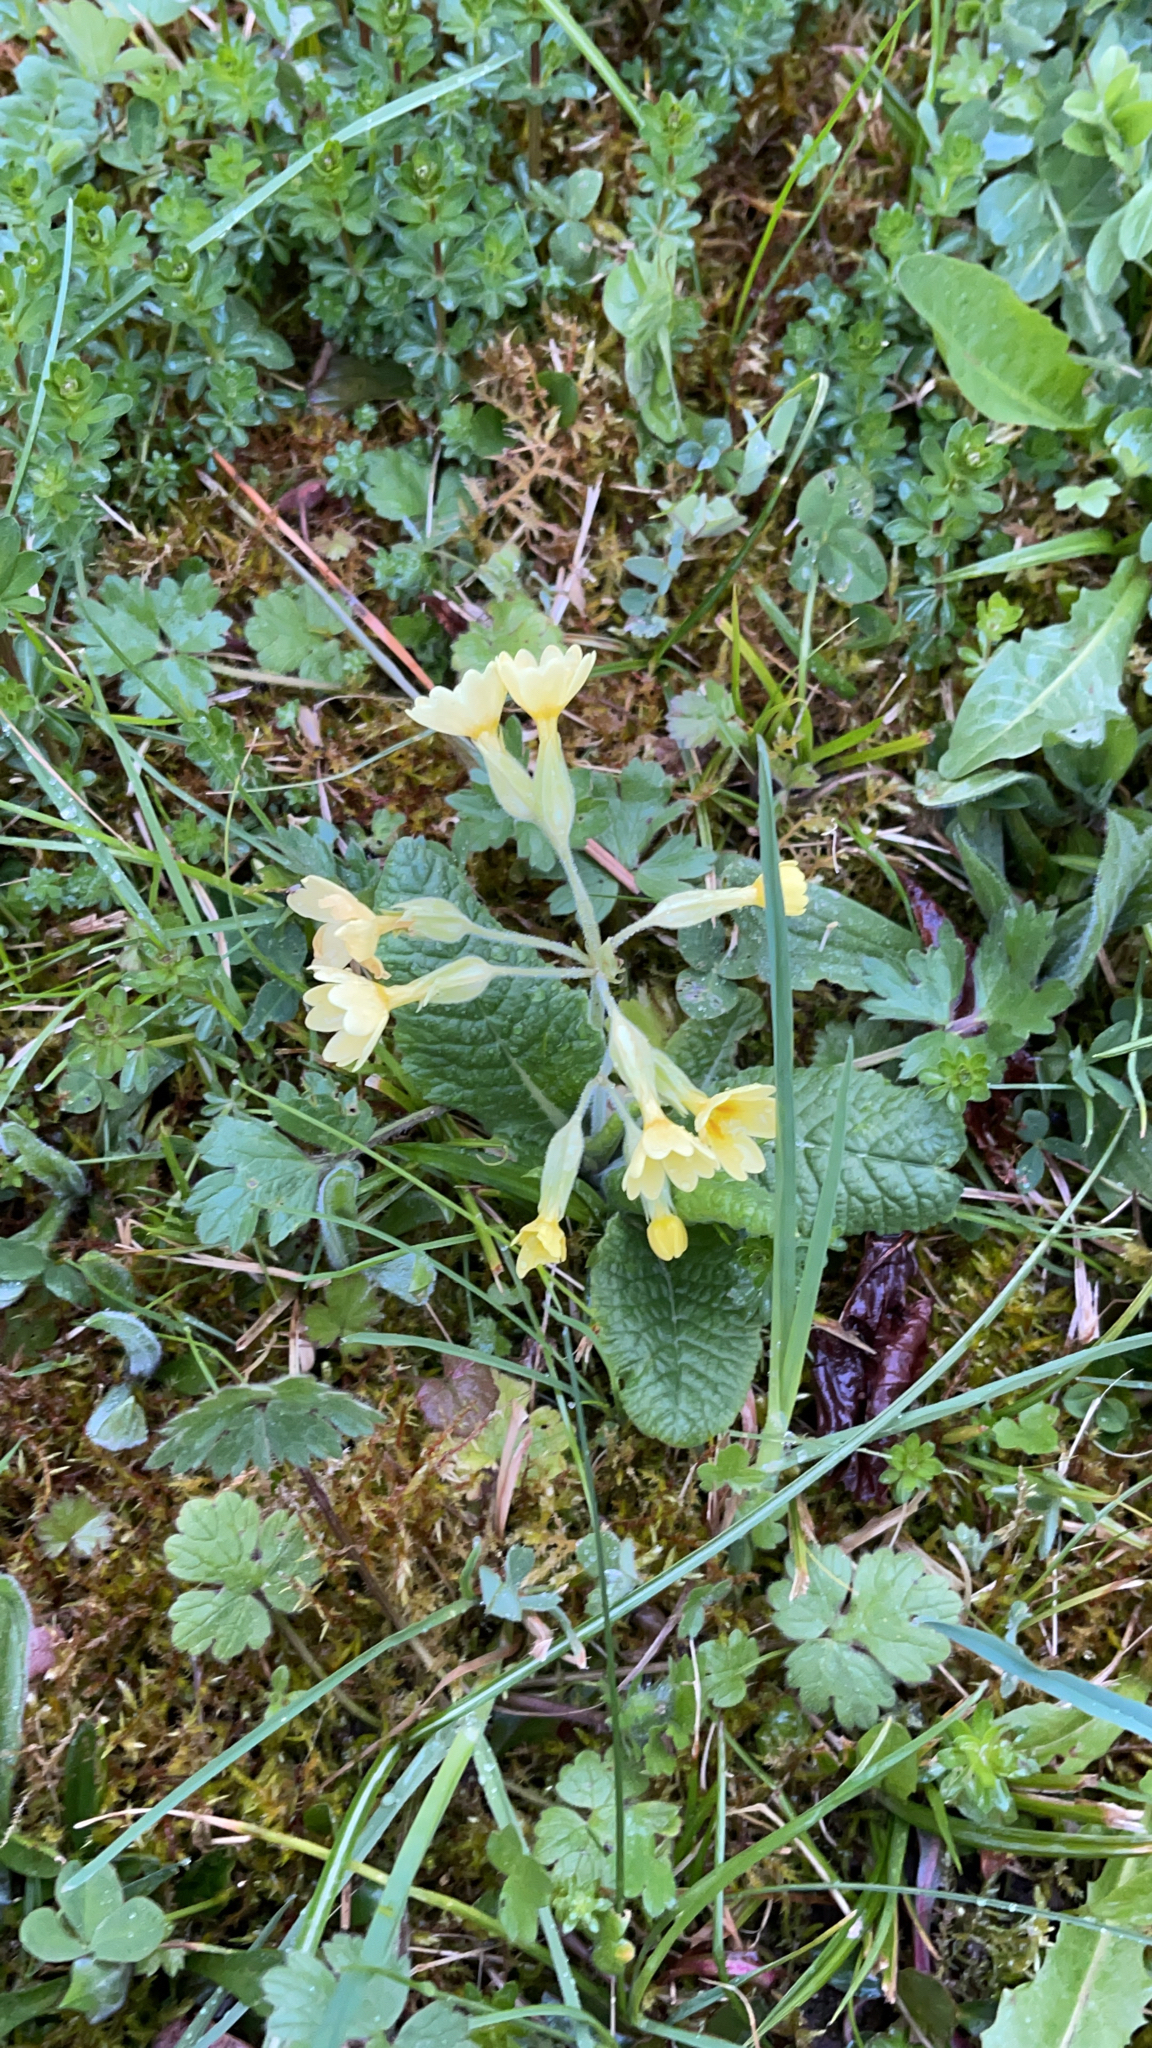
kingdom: Plantae
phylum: Tracheophyta
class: Magnoliopsida
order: Ericales
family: Primulaceae
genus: Primula
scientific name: Primula elatior
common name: Oxlip
